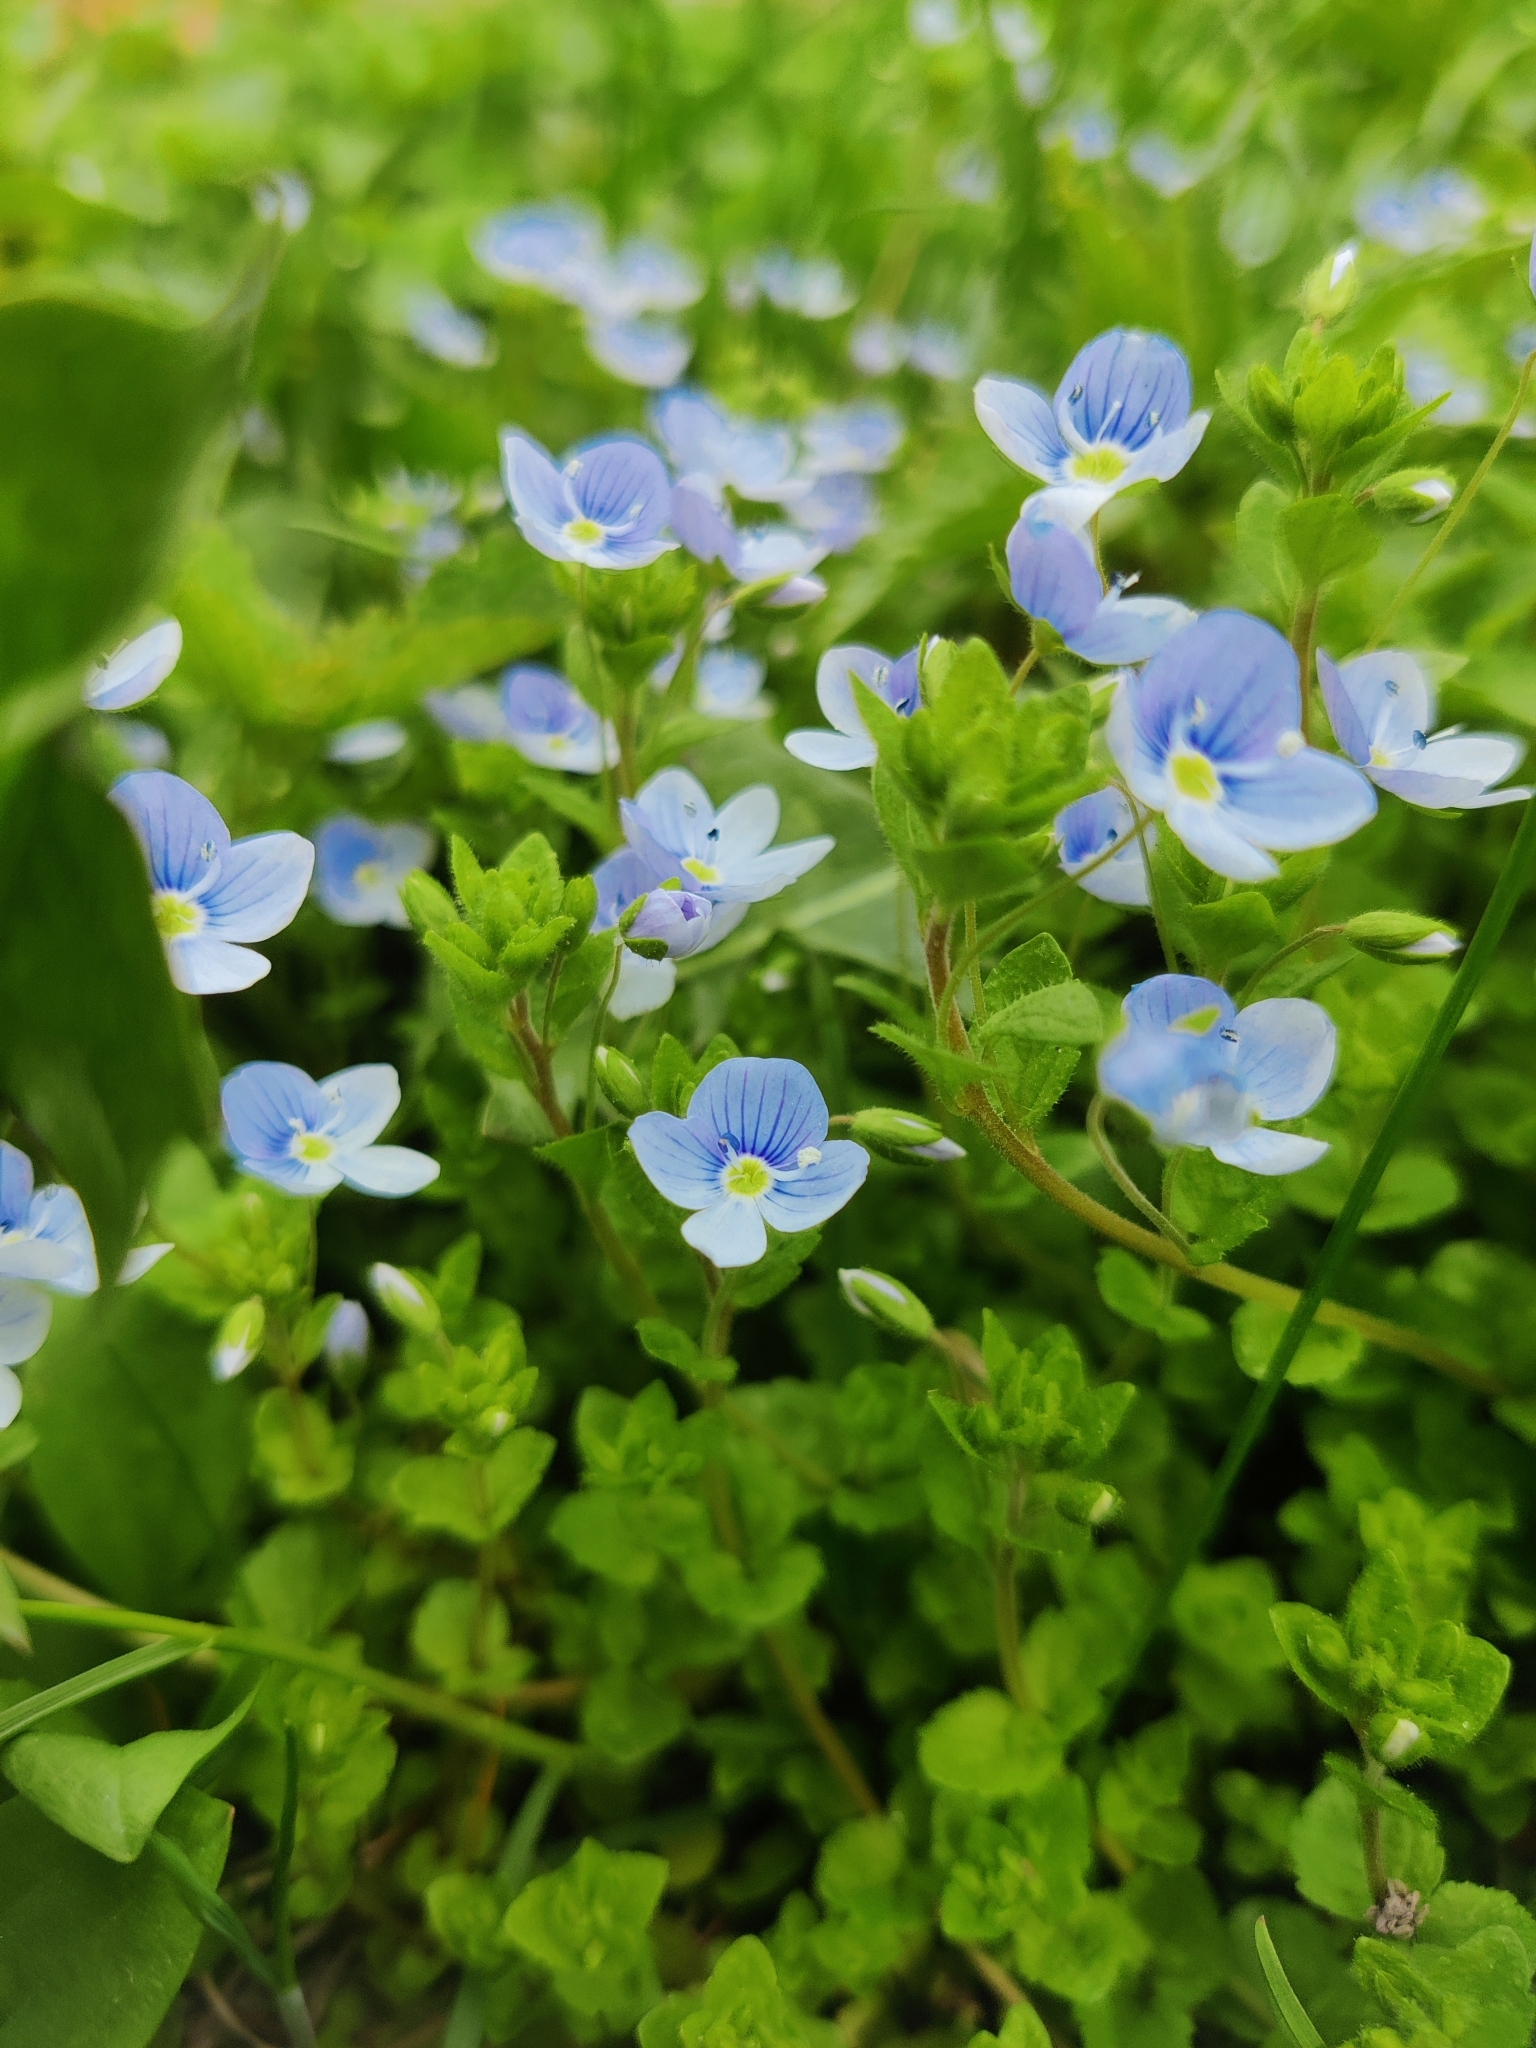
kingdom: Plantae
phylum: Tracheophyta
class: Magnoliopsida
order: Lamiales
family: Plantaginaceae
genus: Veronica
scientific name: Veronica filiformis
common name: Slender speedwell
